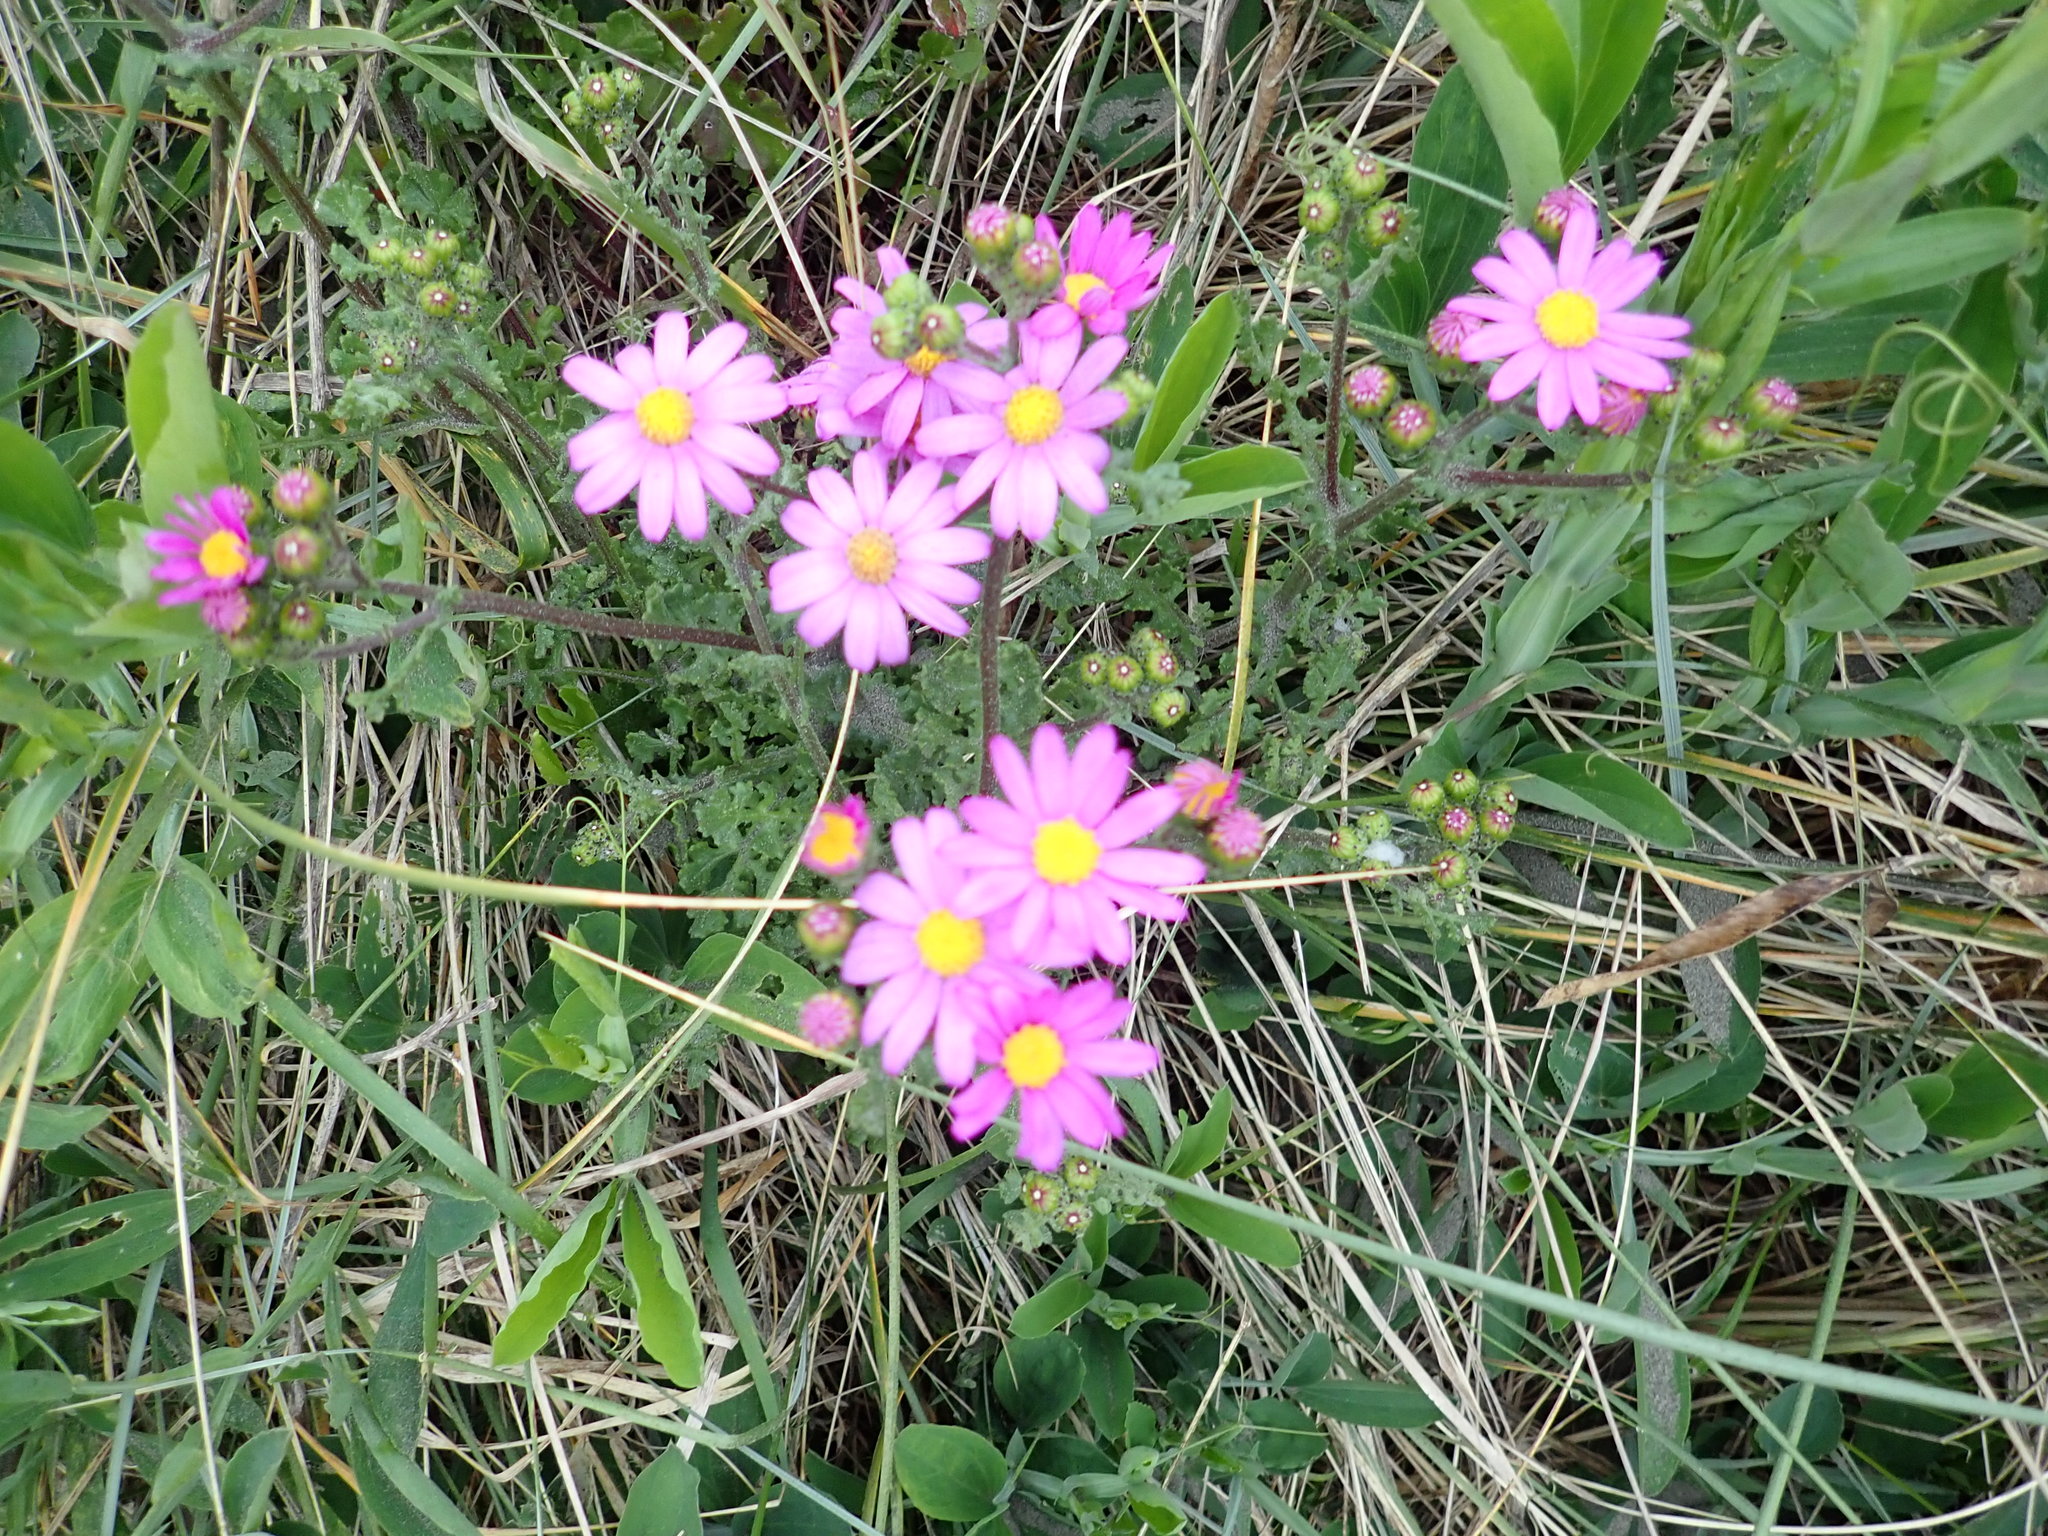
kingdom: Plantae
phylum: Tracheophyta
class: Magnoliopsida
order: Asterales
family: Asteraceae
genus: Senecio
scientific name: Senecio elegans
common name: Purple groundsel
